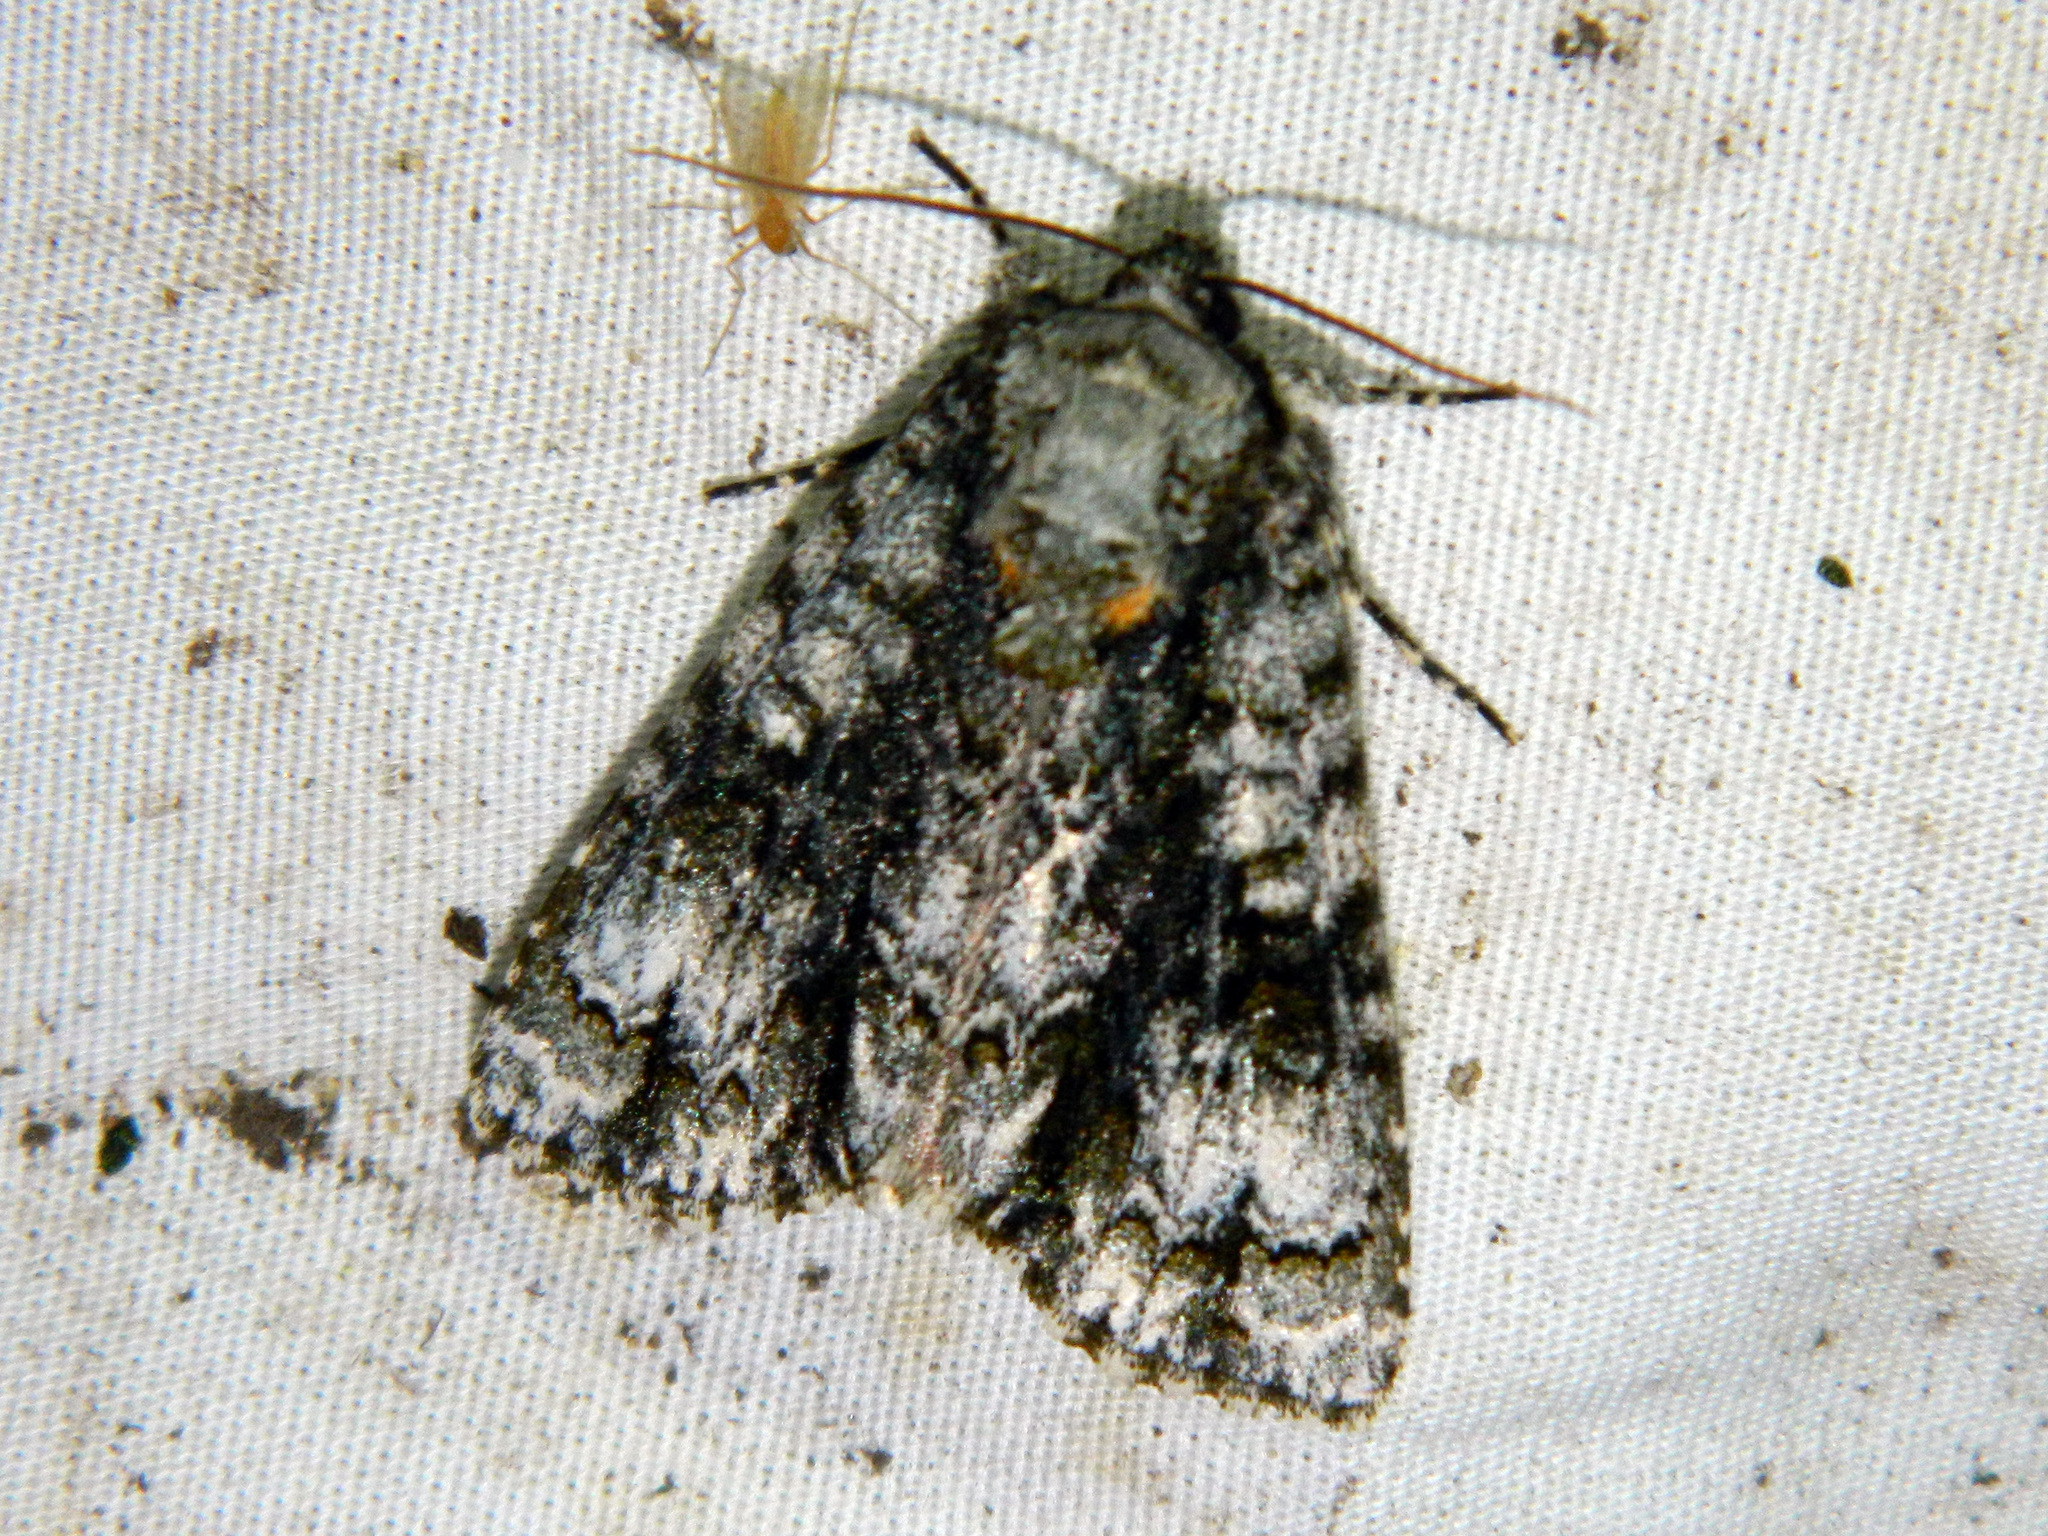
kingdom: Animalia
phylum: Arthropoda
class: Insecta
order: Lepidoptera
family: Noctuidae
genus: Acronicta
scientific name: Acronicta superans
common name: Splendid dagger
